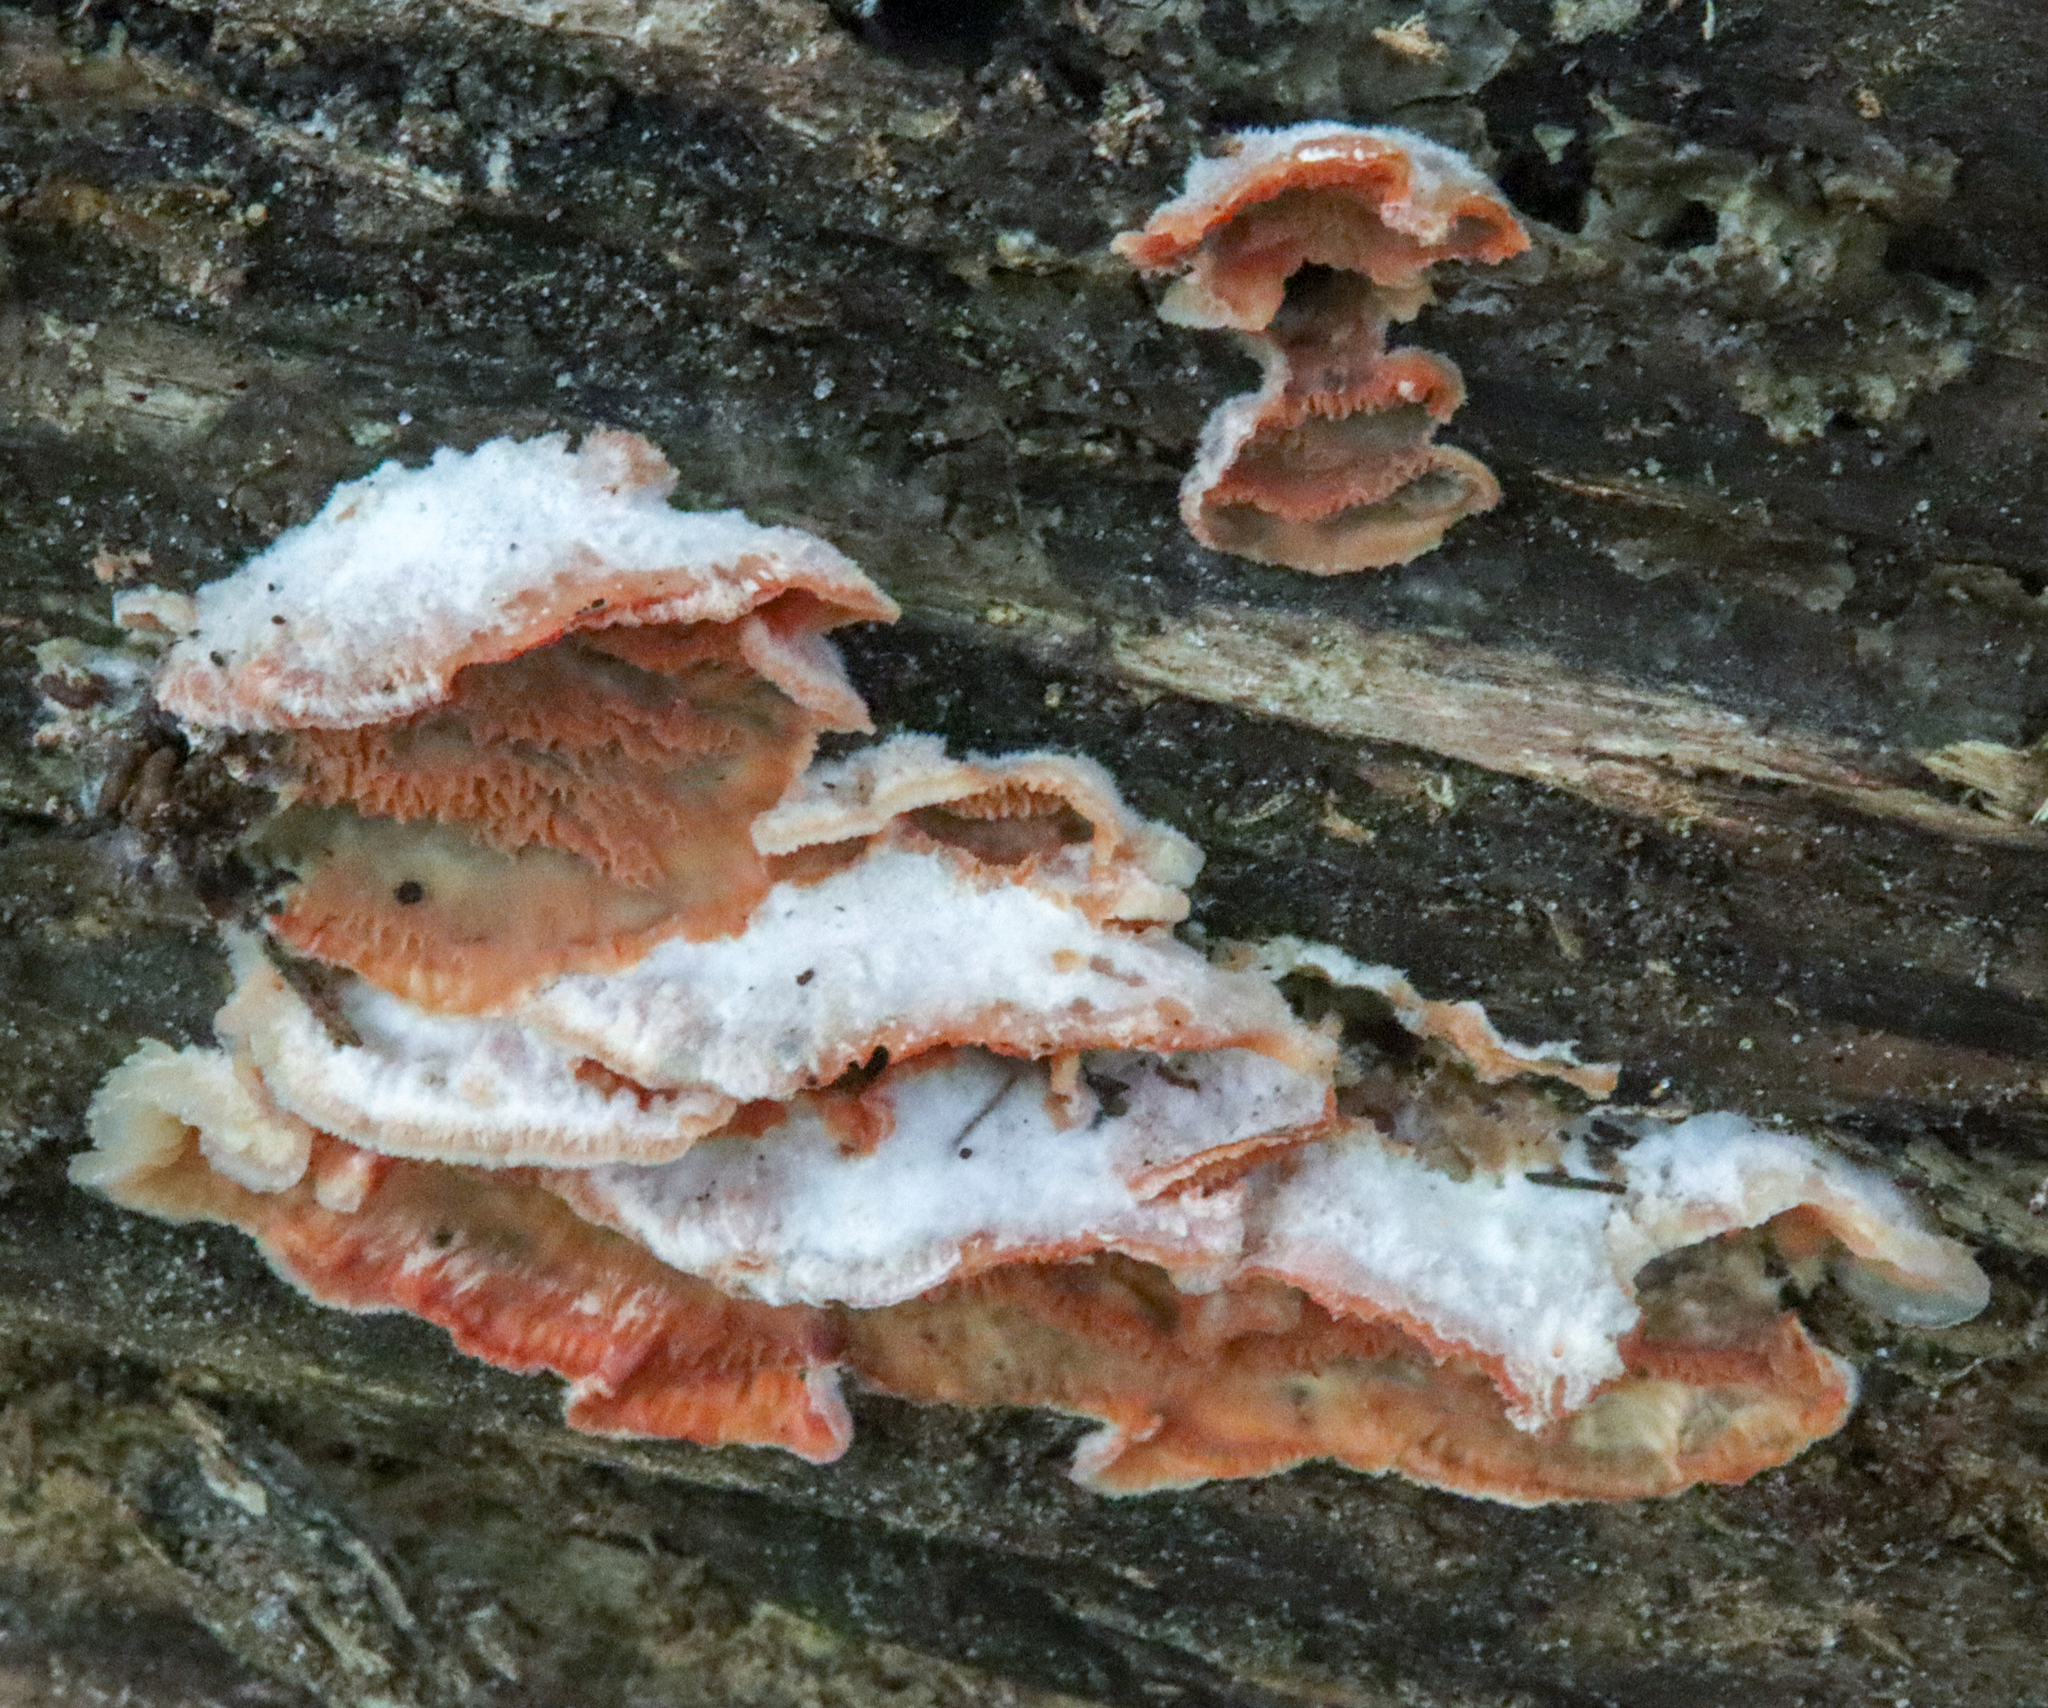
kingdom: Fungi
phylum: Basidiomycota
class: Agaricomycetes
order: Polyporales
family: Meruliaceae
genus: Phlebia
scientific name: Phlebia tremellosa
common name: Jelly rot
